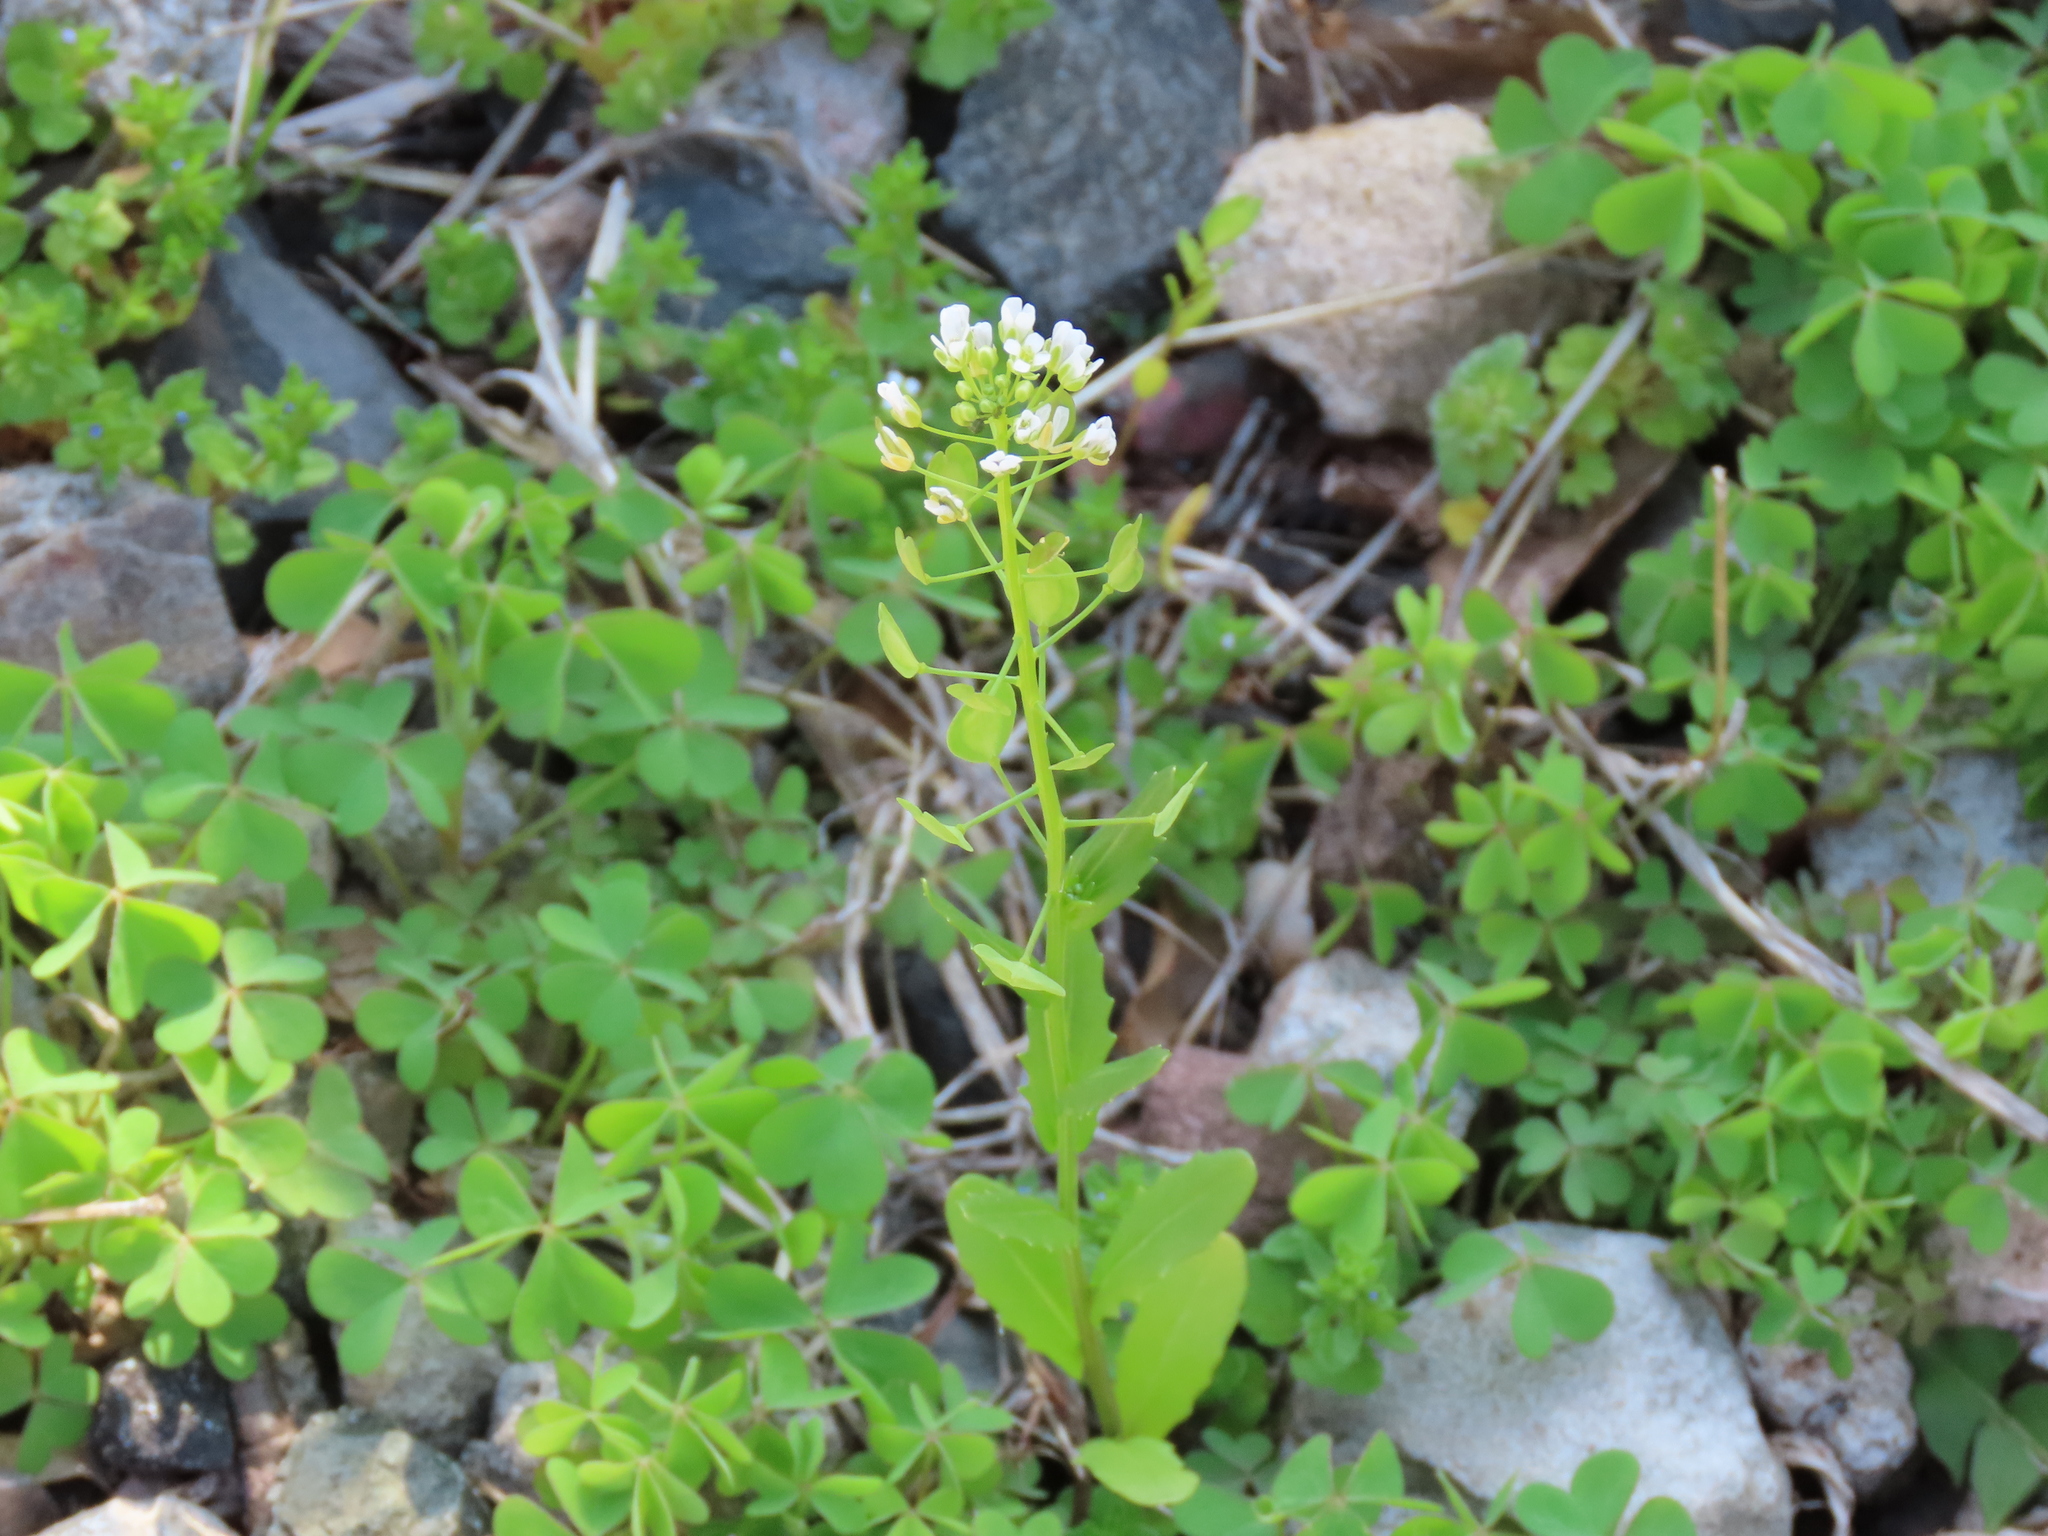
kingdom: Plantae
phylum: Tracheophyta
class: Magnoliopsida
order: Brassicales
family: Brassicaceae
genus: Thlaspi
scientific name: Thlaspi arvense
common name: Field pennycress
